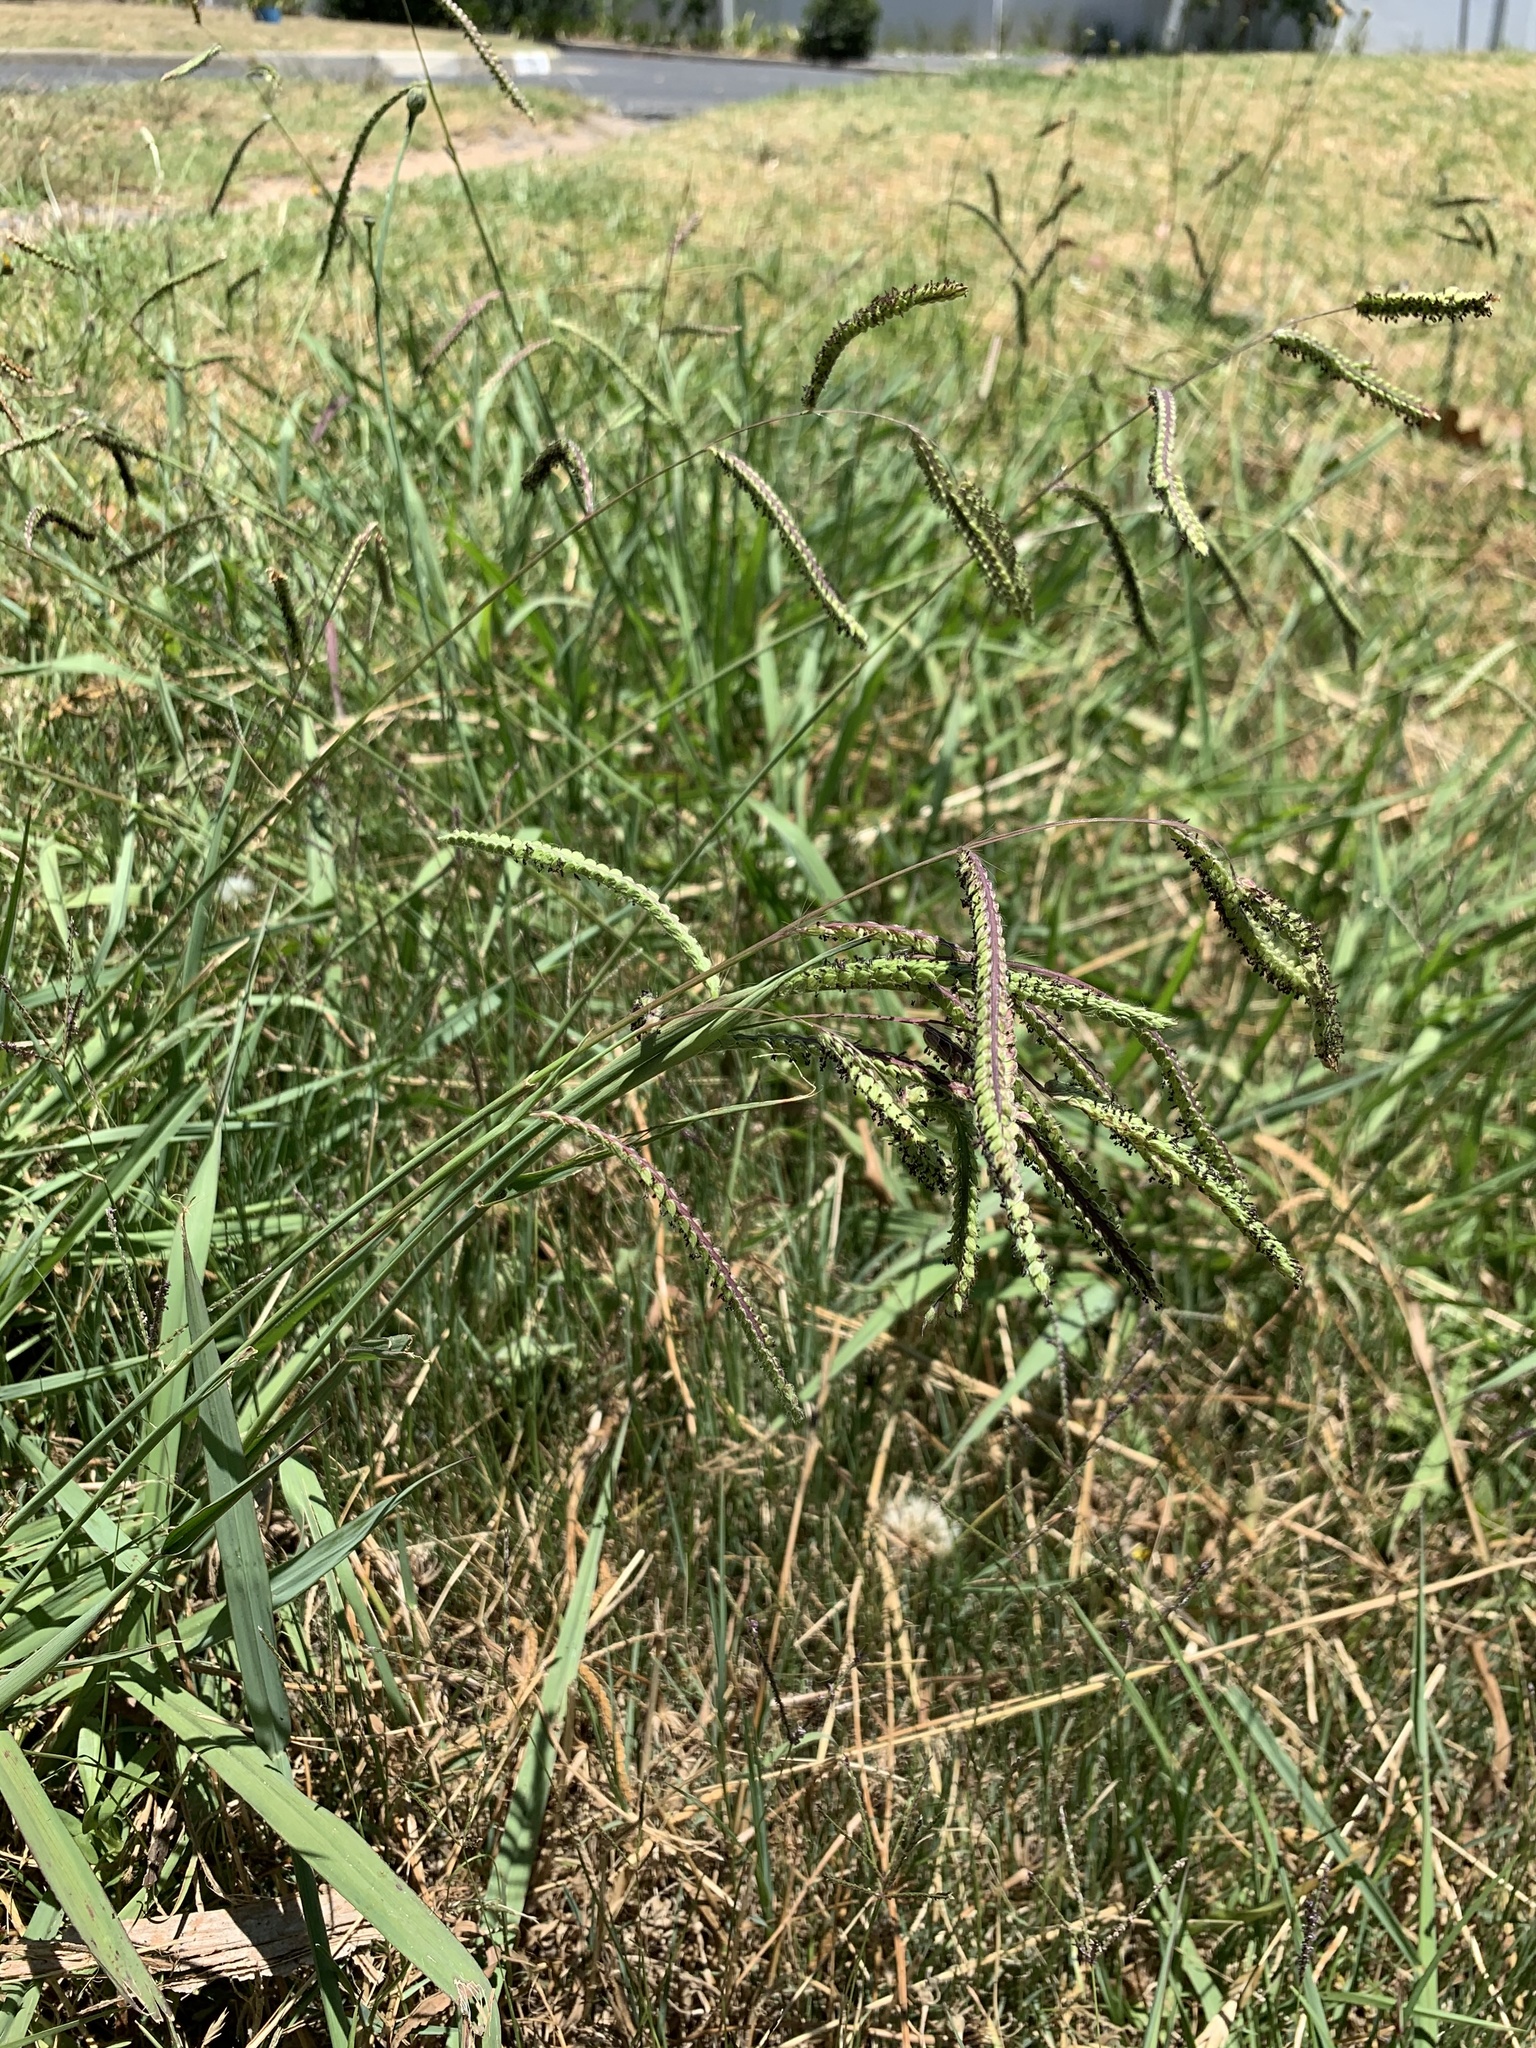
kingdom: Plantae
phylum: Tracheophyta
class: Liliopsida
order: Poales
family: Poaceae
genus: Paspalum
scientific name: Paspalum dilatatum
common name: Dallisgrass
